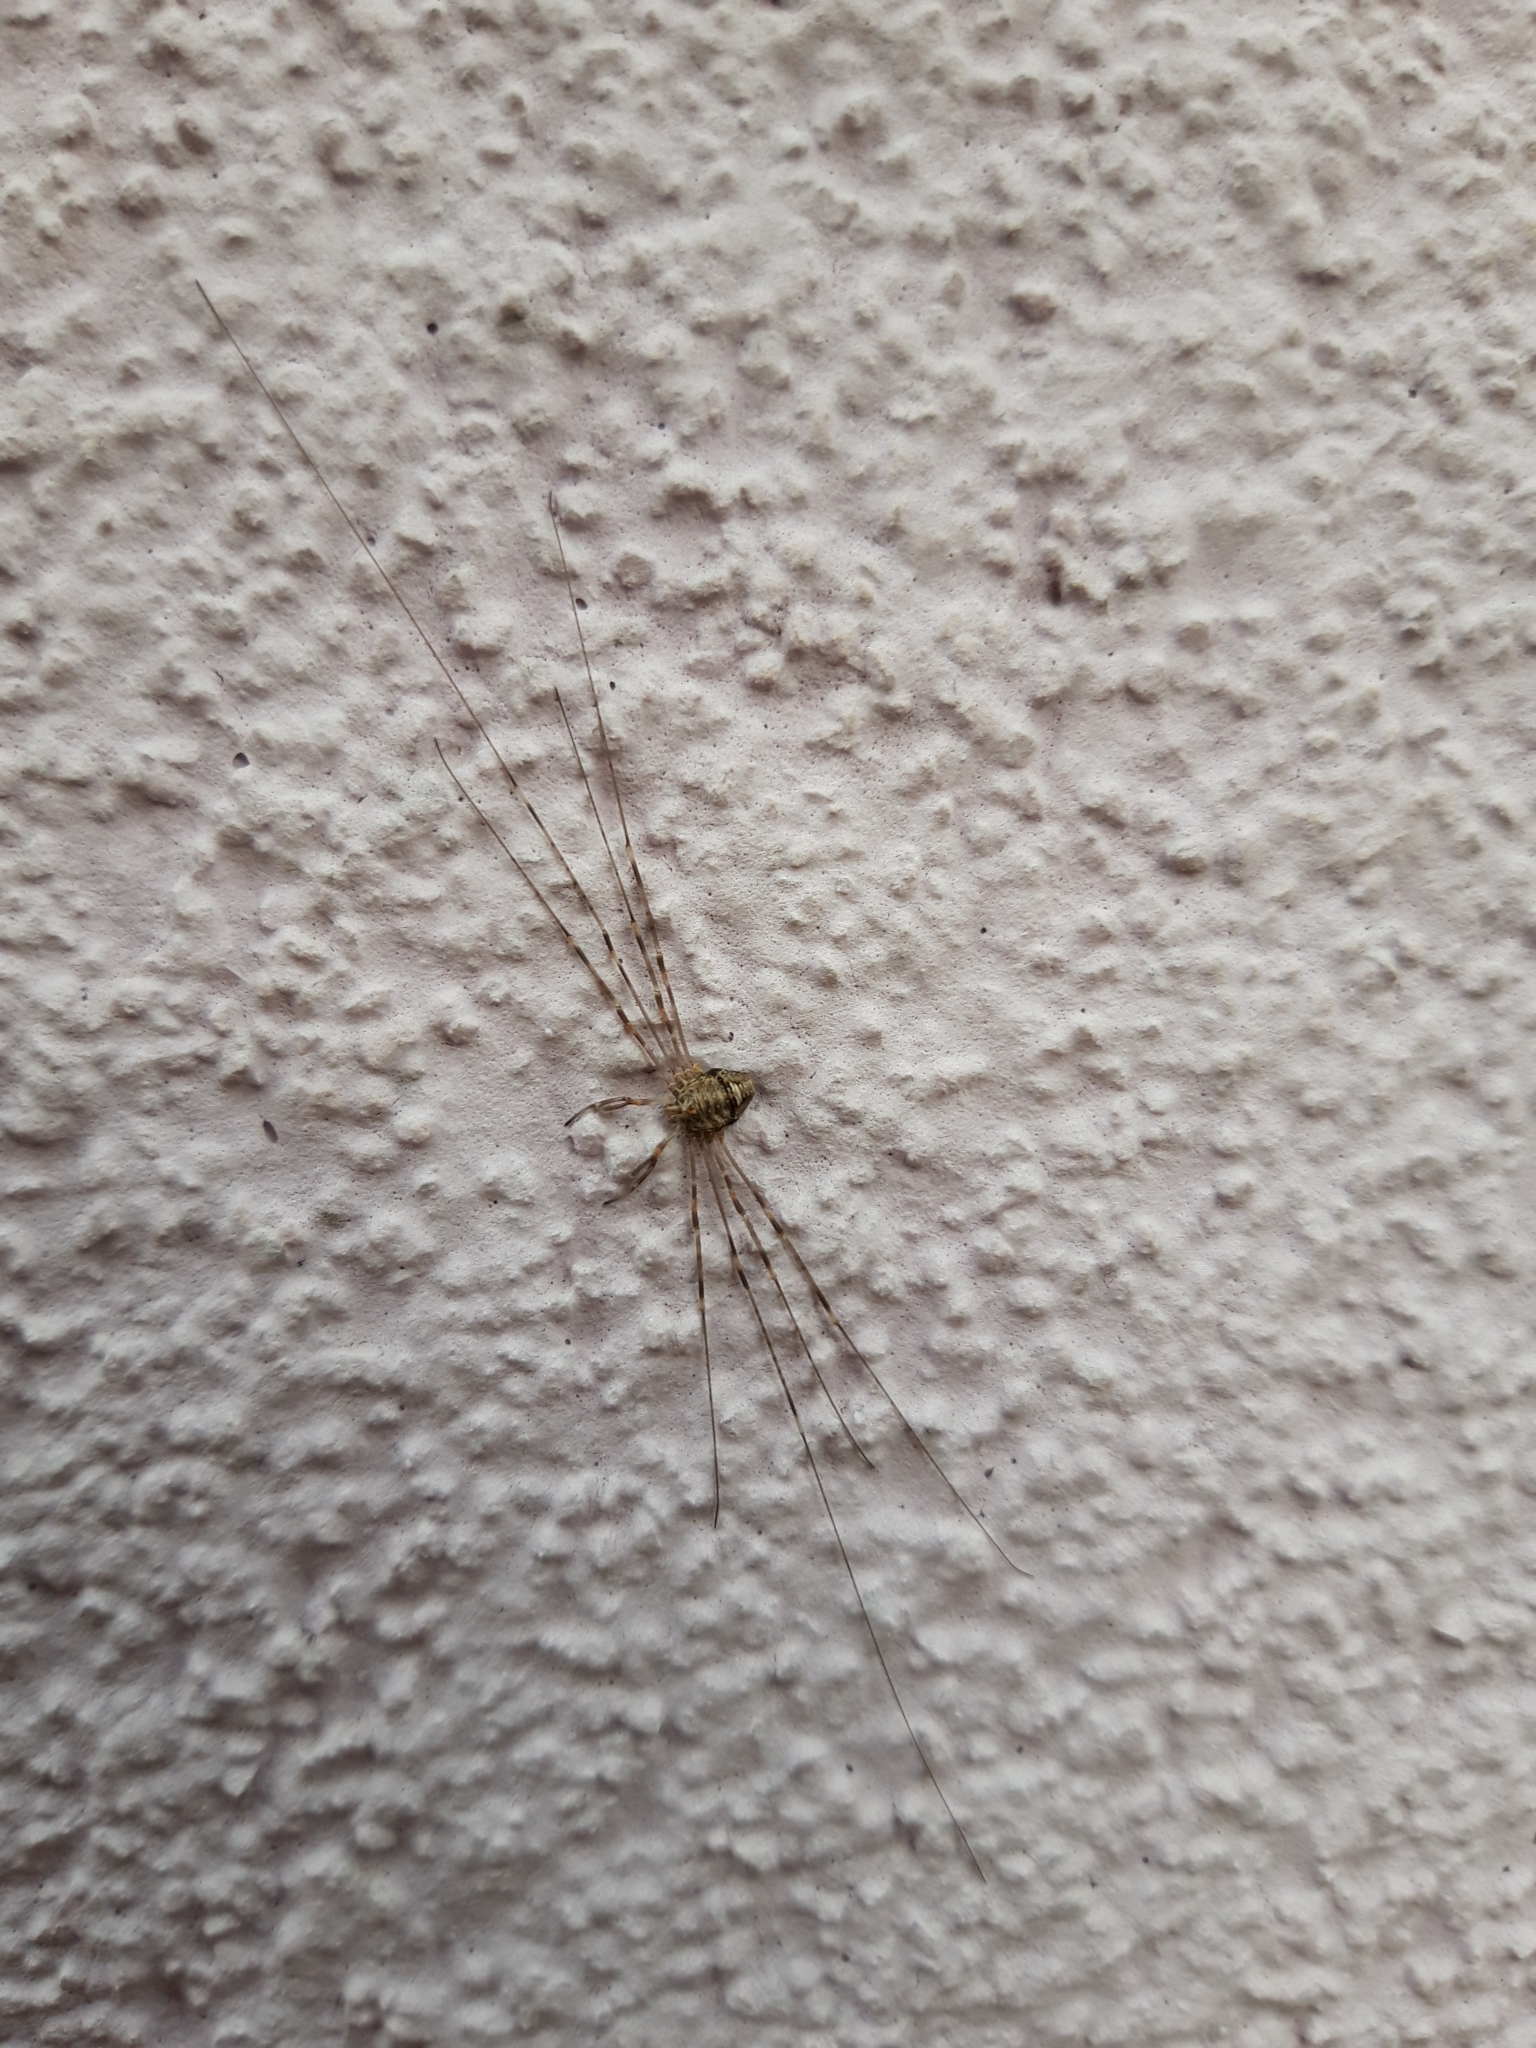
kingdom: Animalia
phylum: Arthropoda
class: Arachnida
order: Opiliones
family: Phalangiidae
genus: Dicranopalpus
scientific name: Dicranopalpus ramosus
